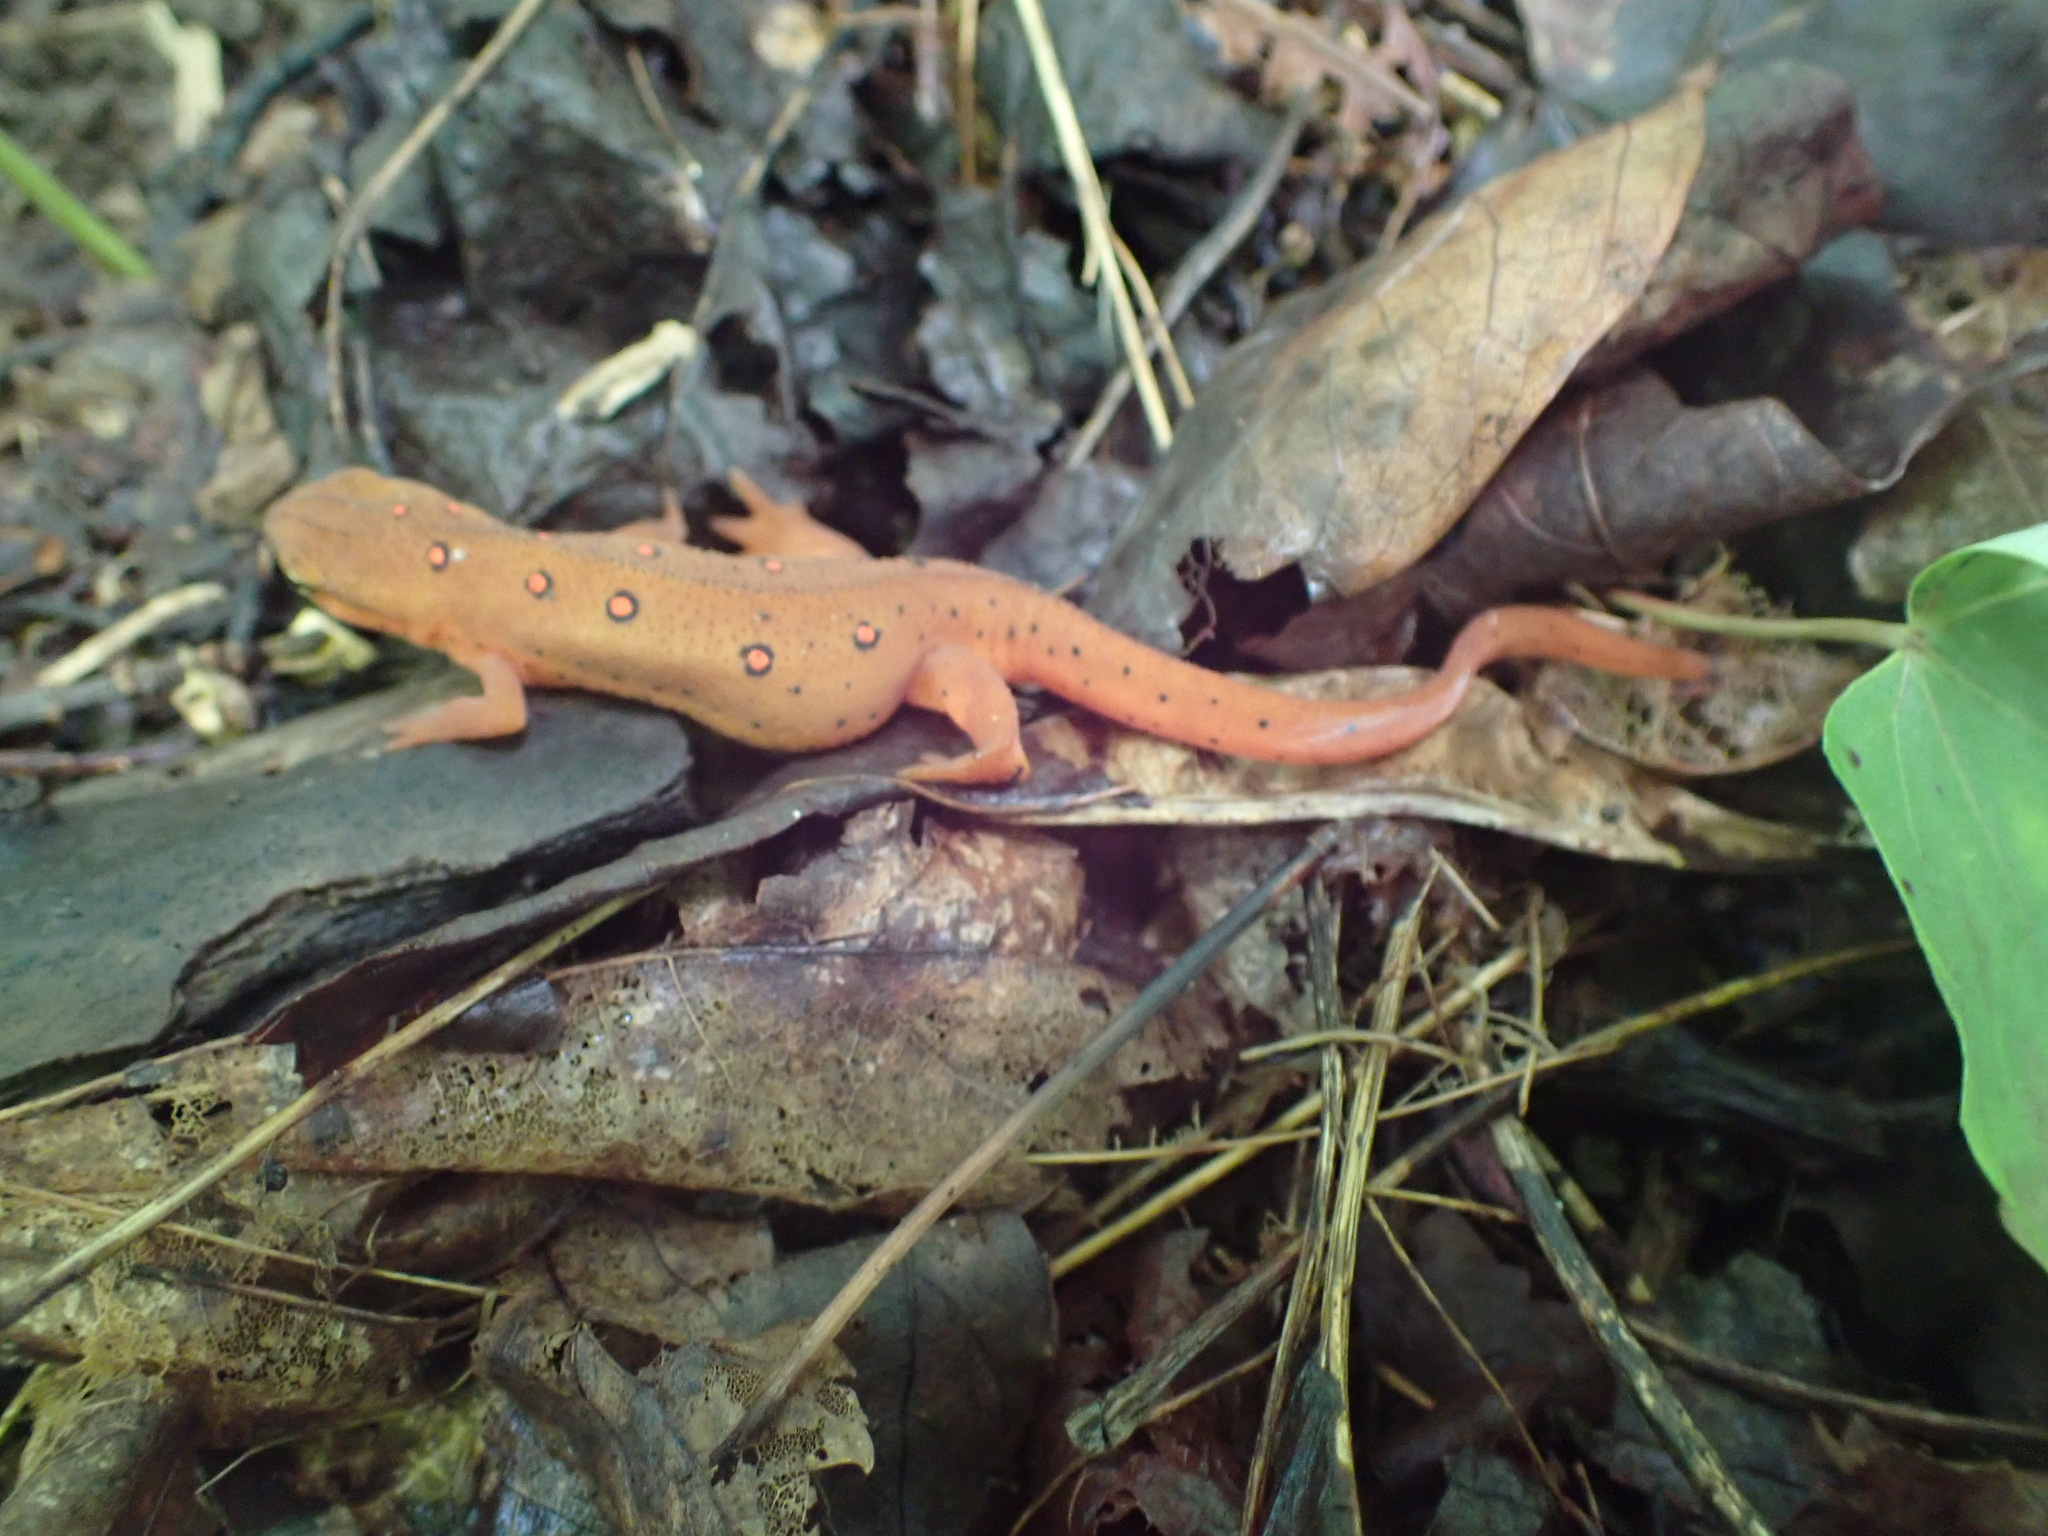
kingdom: Animalia
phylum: Chordata
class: Amphibia
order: Caudata
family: Salamandridae
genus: Notophthalmus
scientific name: Notophthalmus viridescens
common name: Eastern newt
